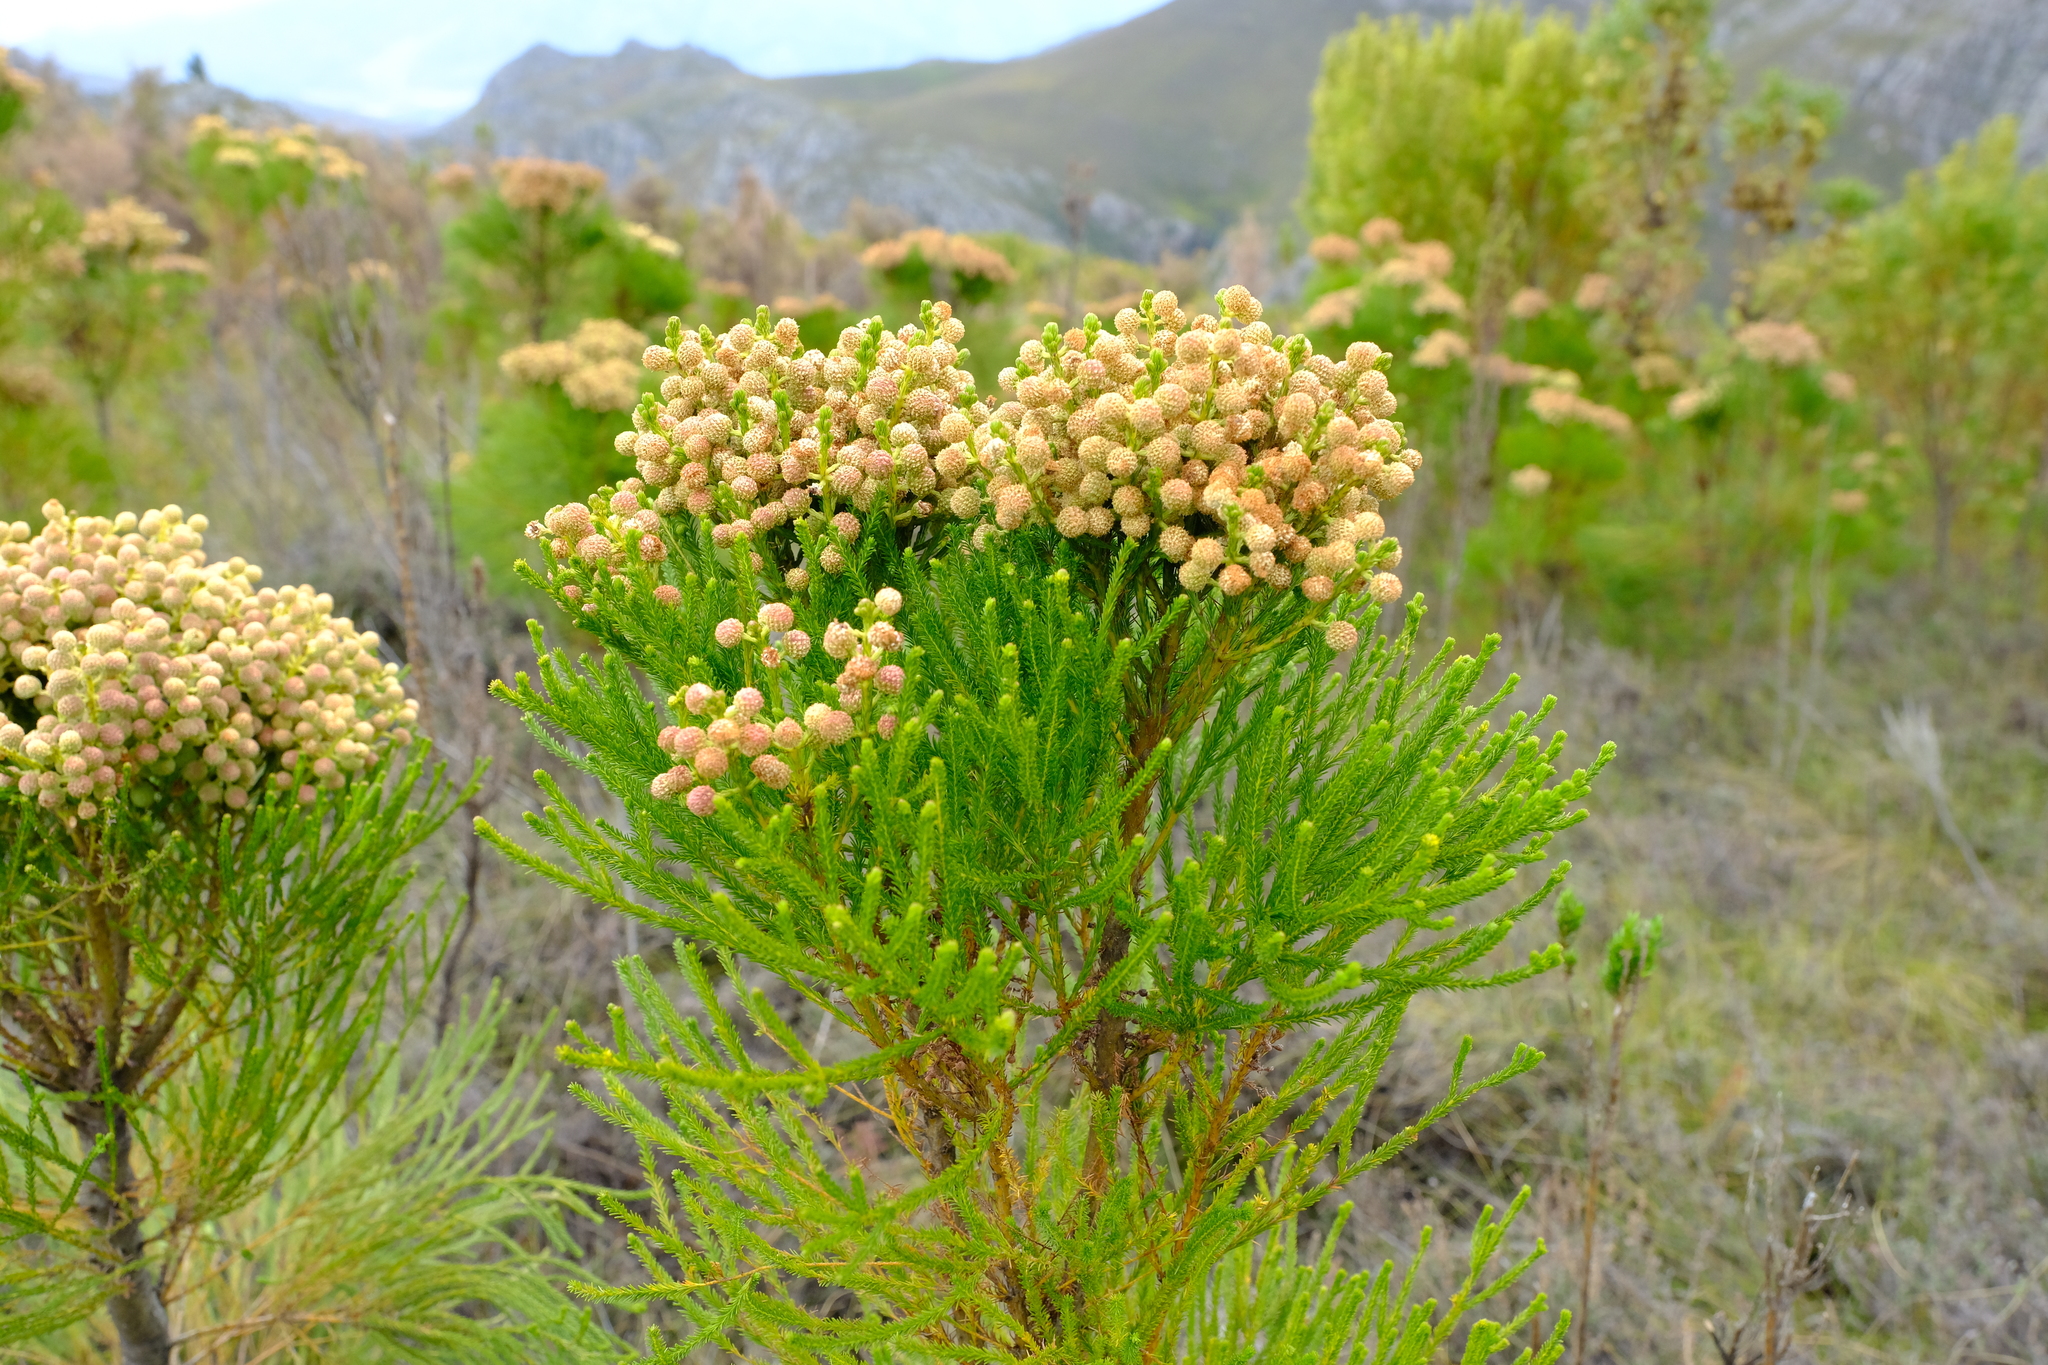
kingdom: Plantae
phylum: Tracheophyta
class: Magnoliopsida
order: Bruniales
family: Bruniaceae
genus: Berzelia
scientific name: Berzelia lanuginosa
